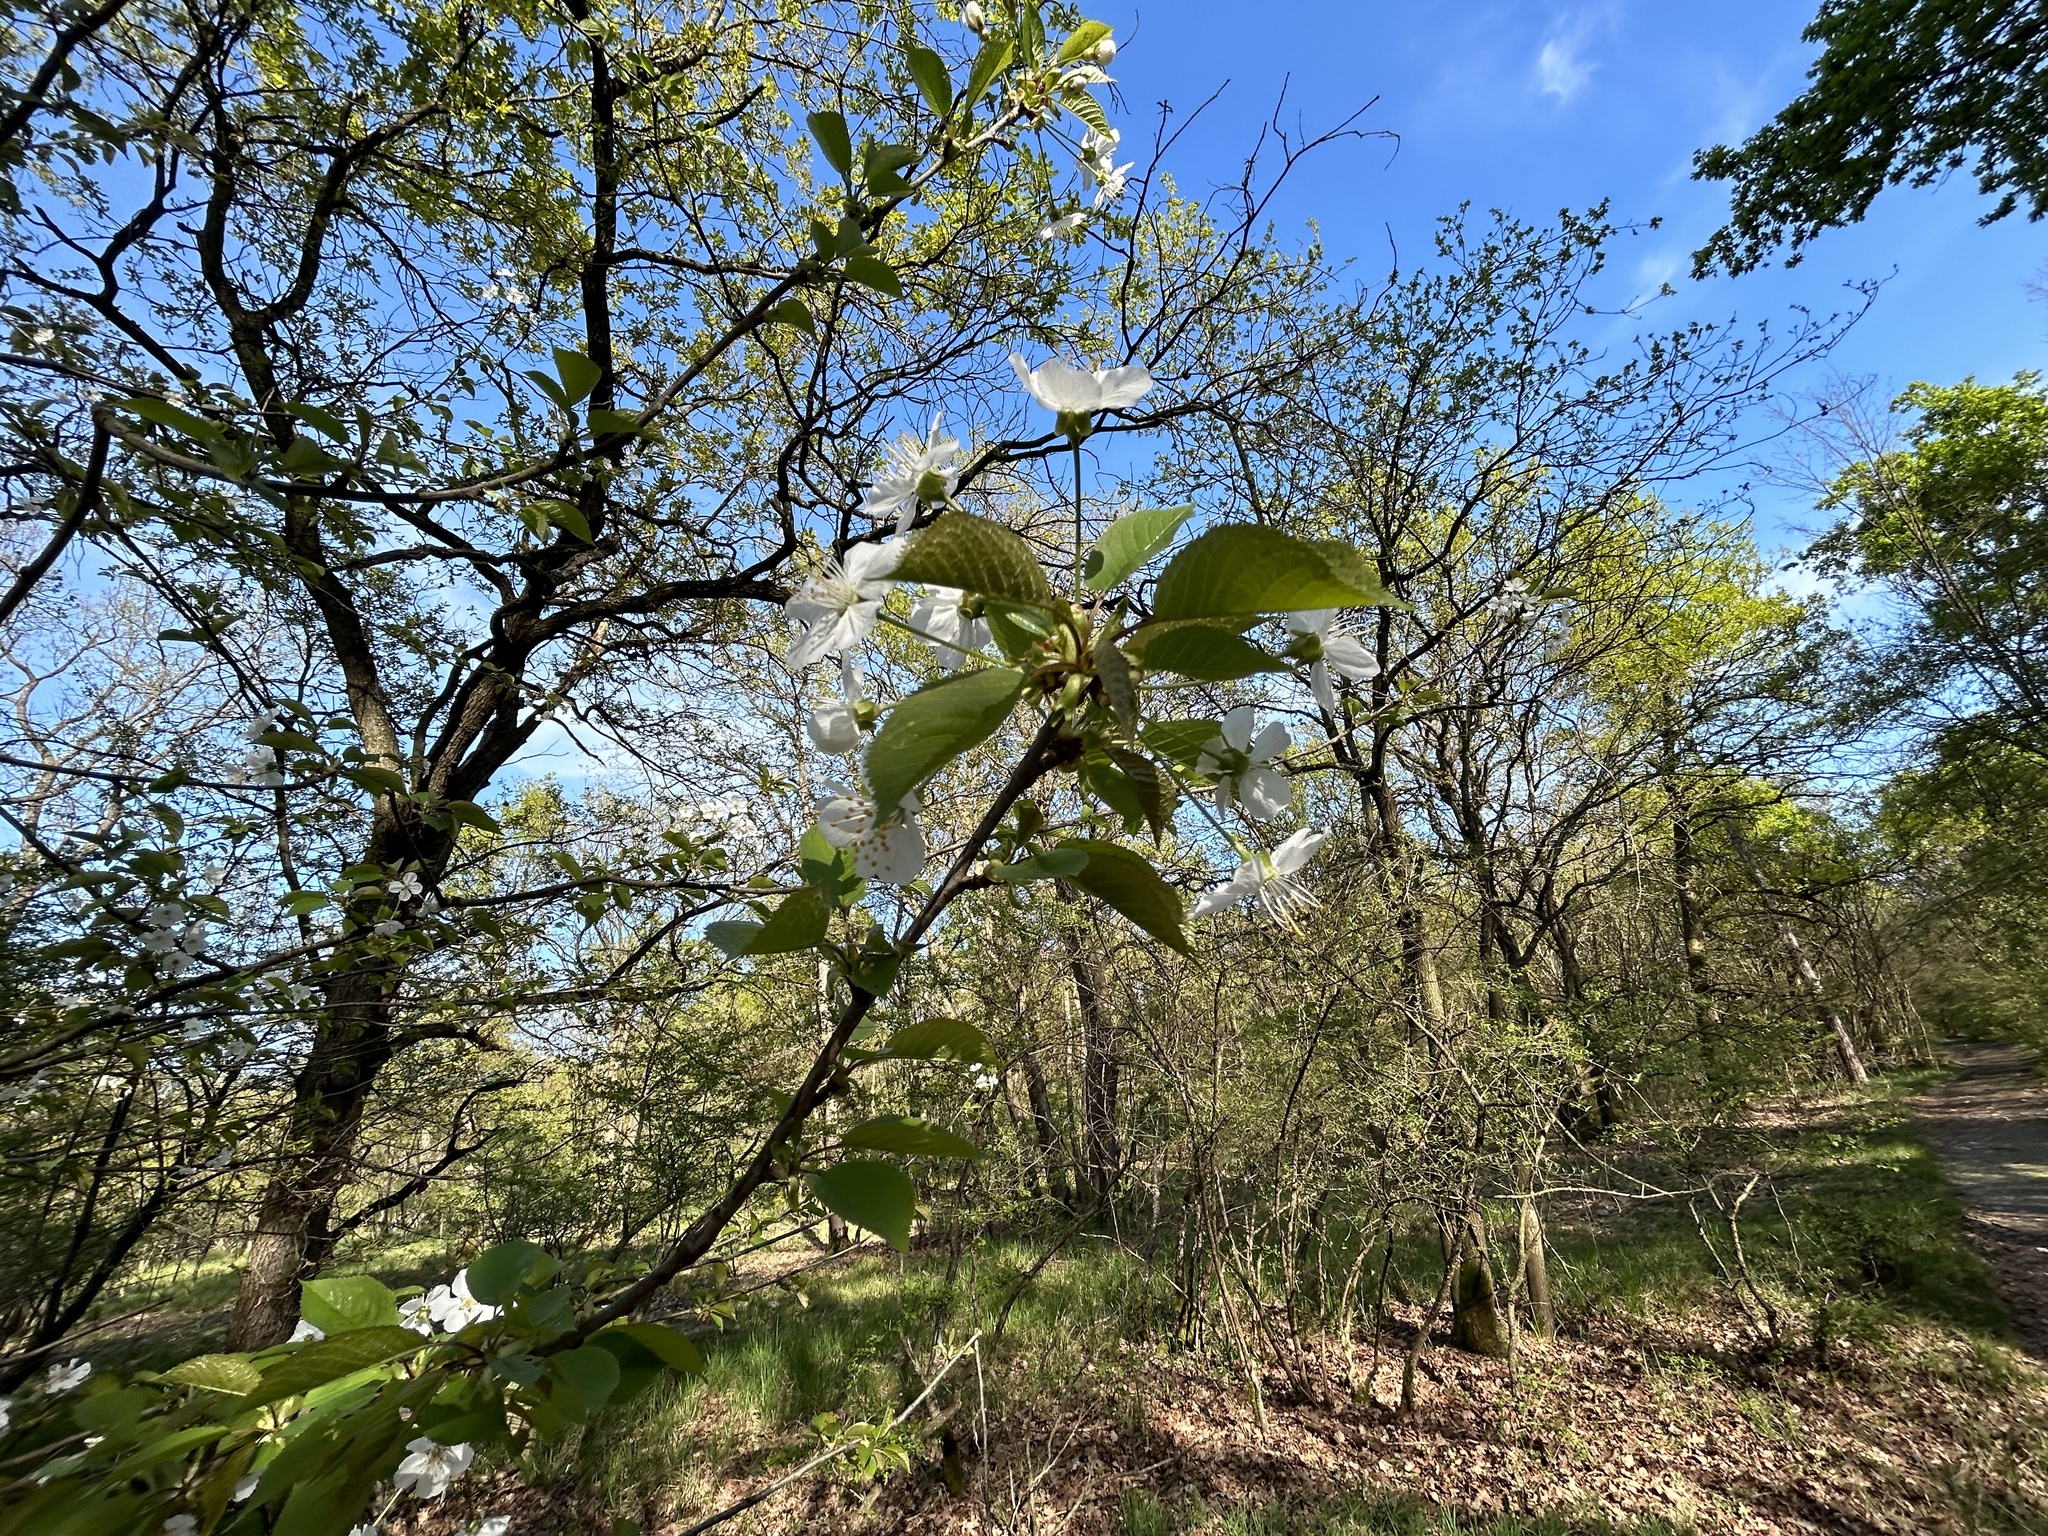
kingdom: Plantae
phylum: Tracheophyta
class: Magnoliopsida
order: Rosales
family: Rosaceae
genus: Prunus
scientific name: Prunus avium
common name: Sweet cherry
